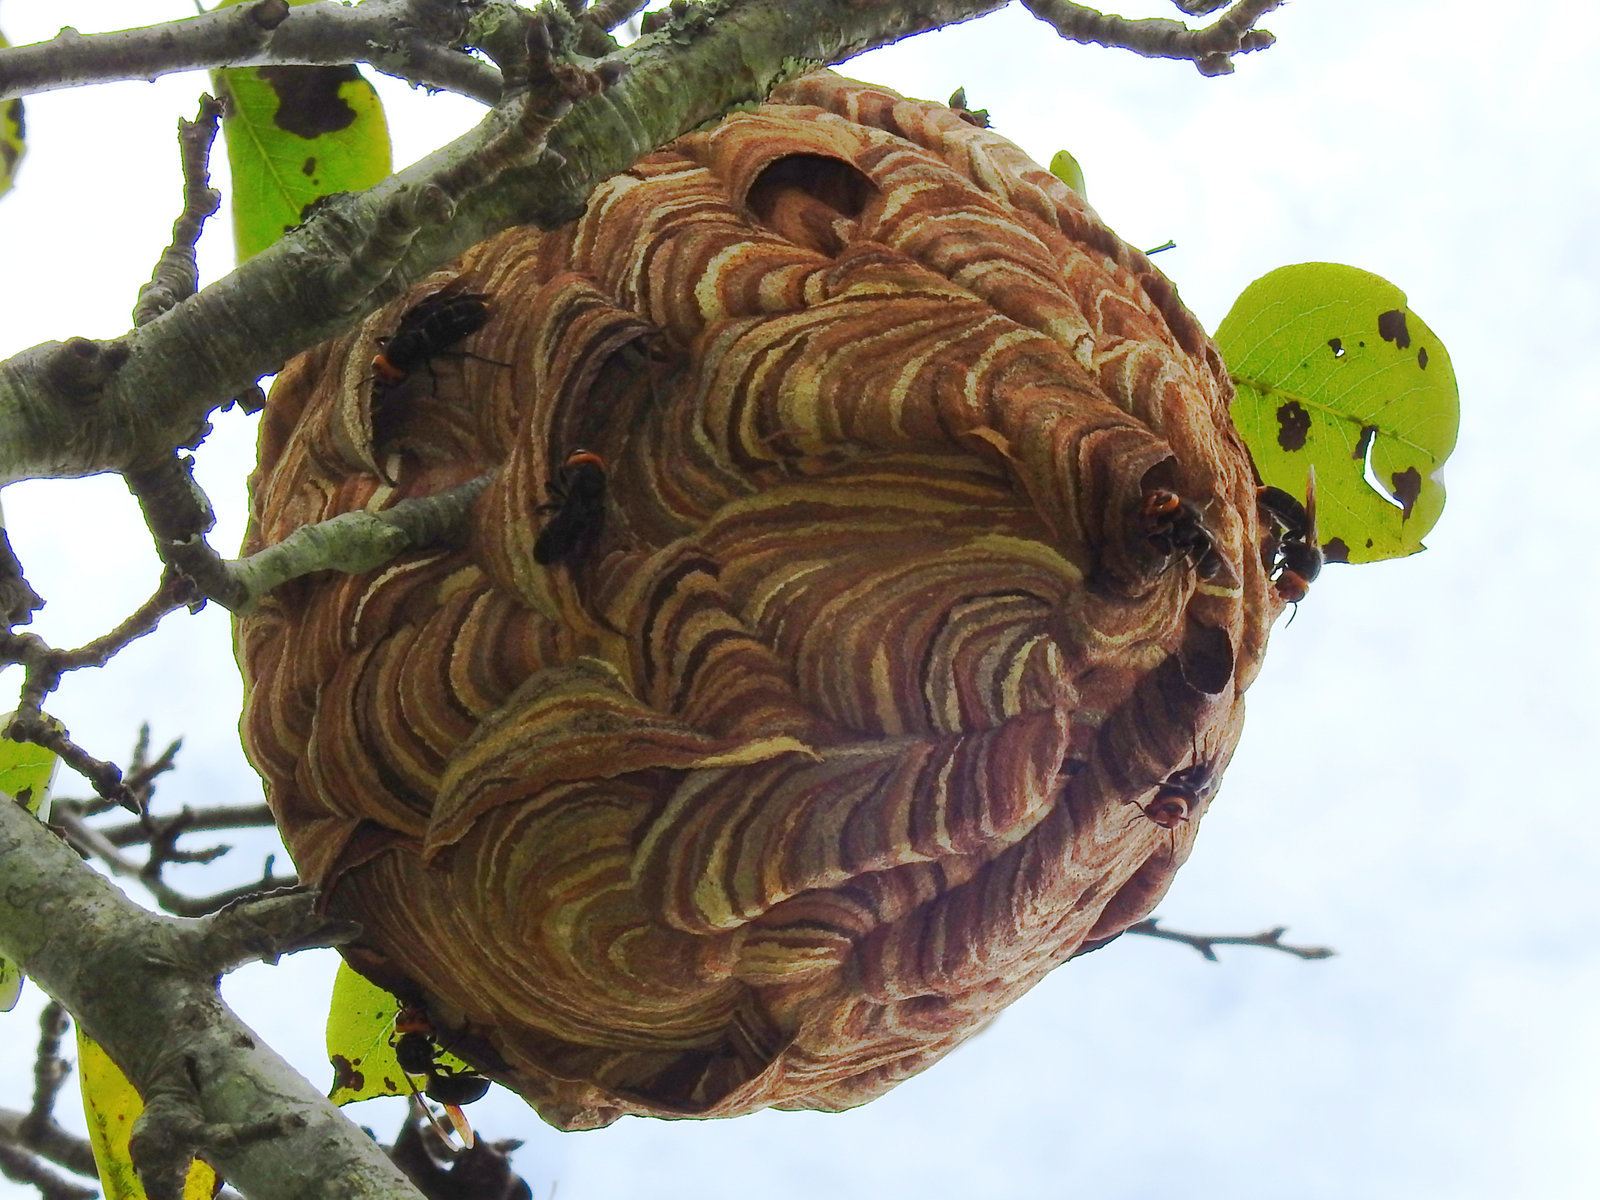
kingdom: Animalia
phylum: Arthropoda
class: Insecta
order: Hymenoptera
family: Vespidae
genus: Vespa
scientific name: Vespa analis
